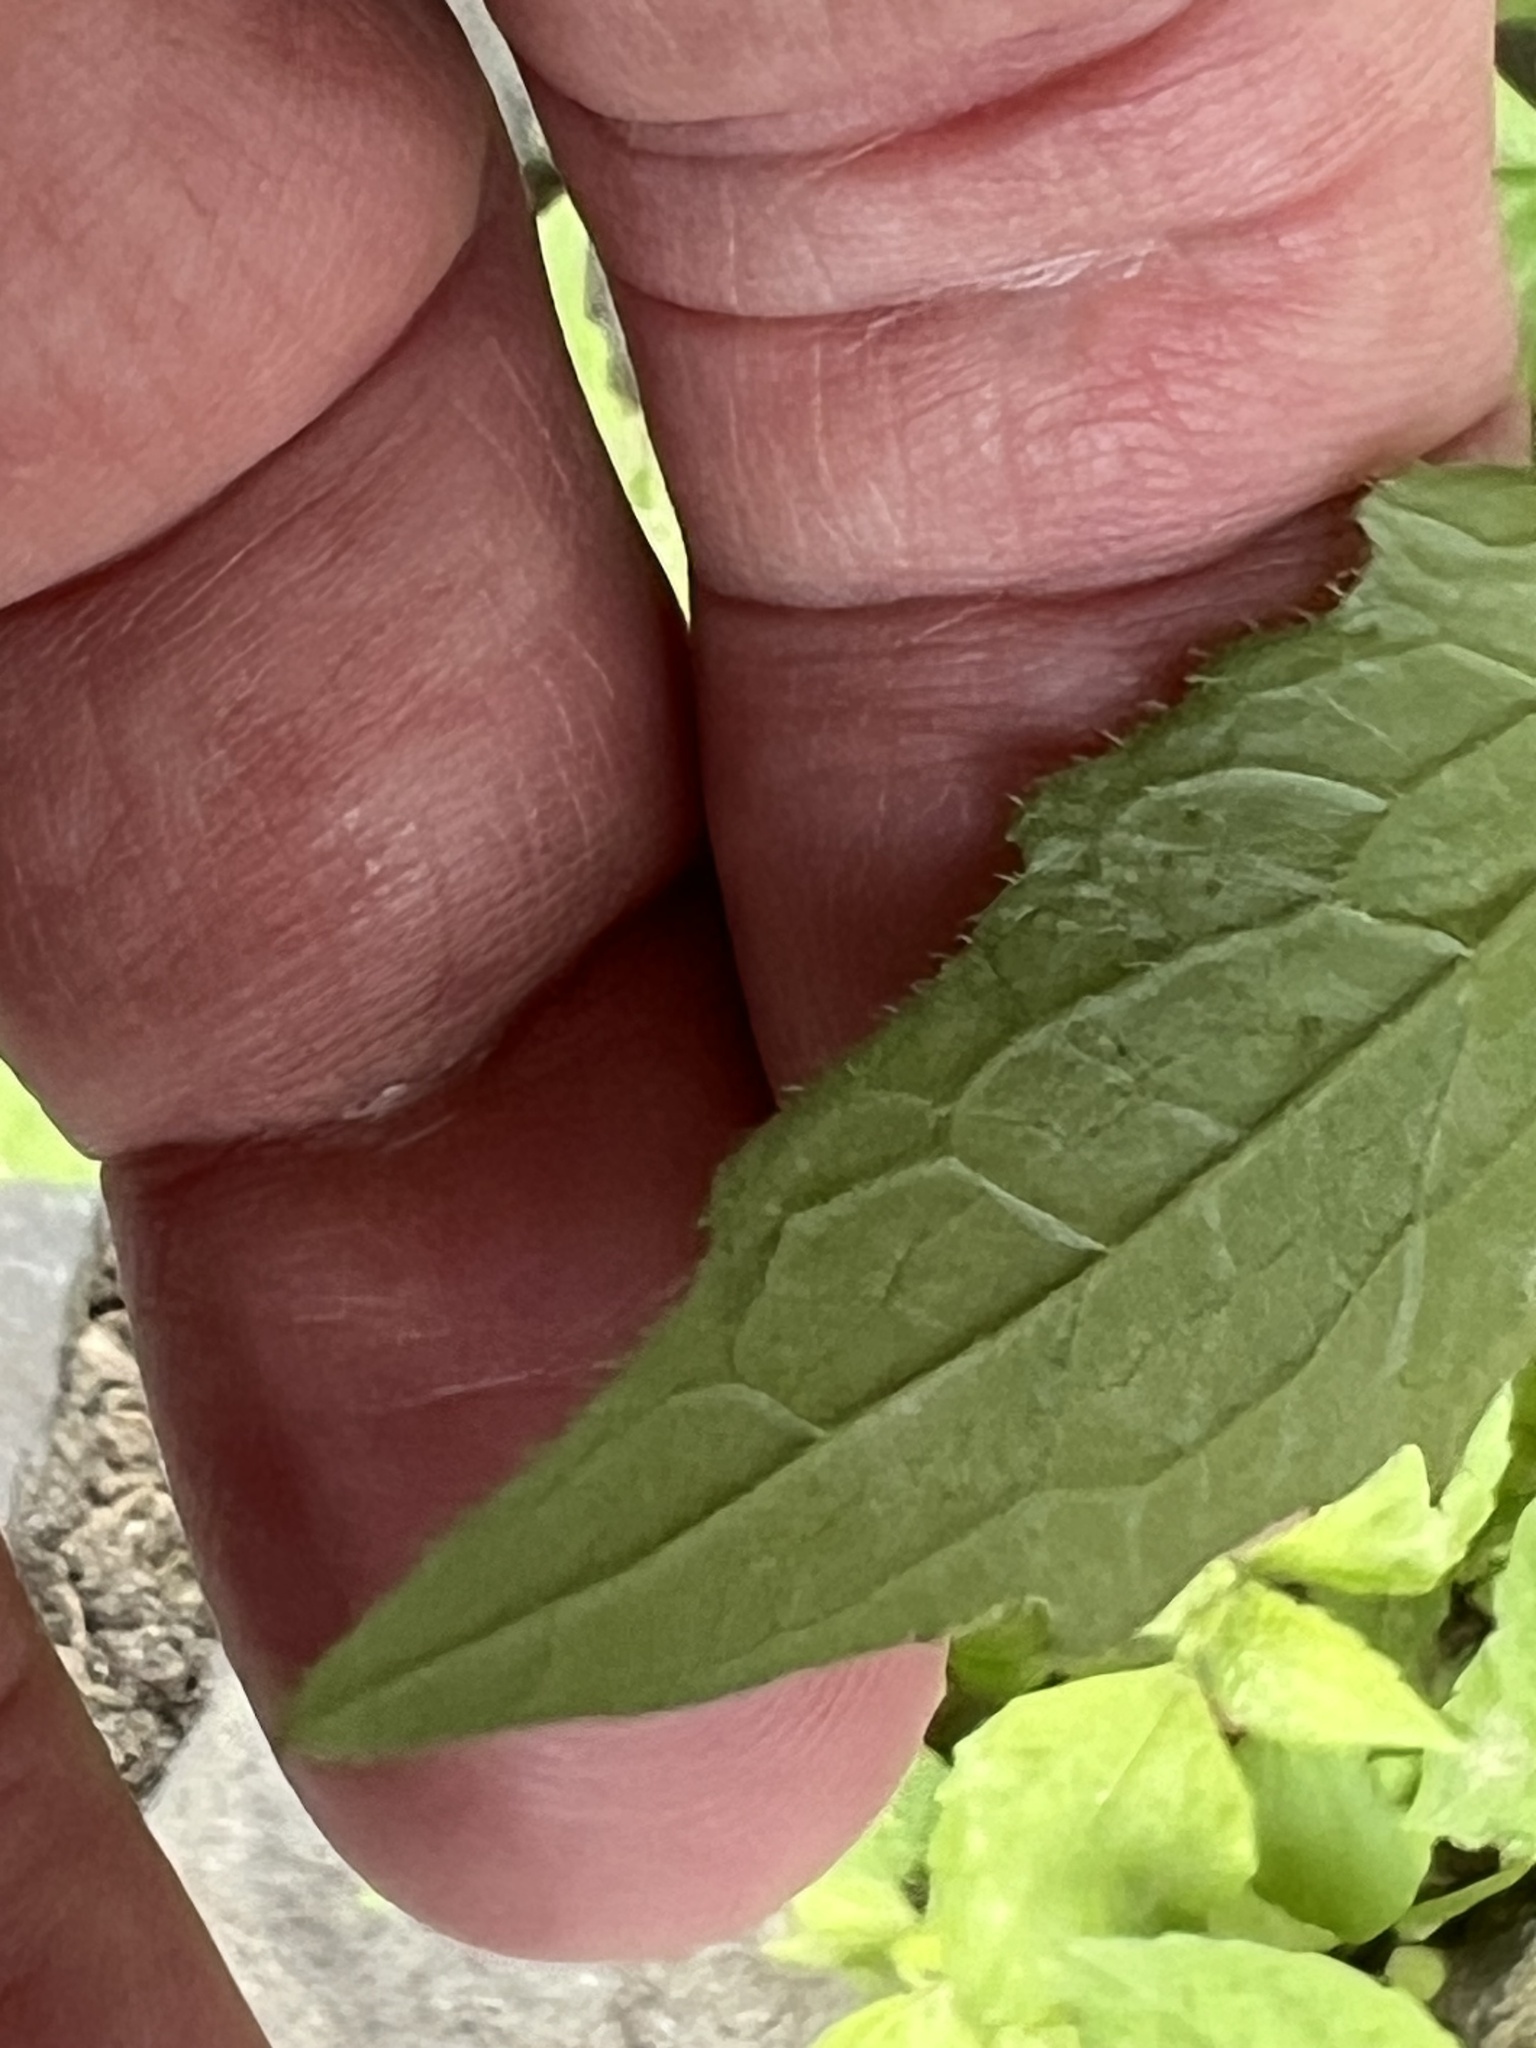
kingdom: Plantae
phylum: Tracheophyta
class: Magnoliopsida
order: Asterales
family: Asteraceae
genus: Galinsoga
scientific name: Galinsoga quadriradiata
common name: Shaggy soldier
